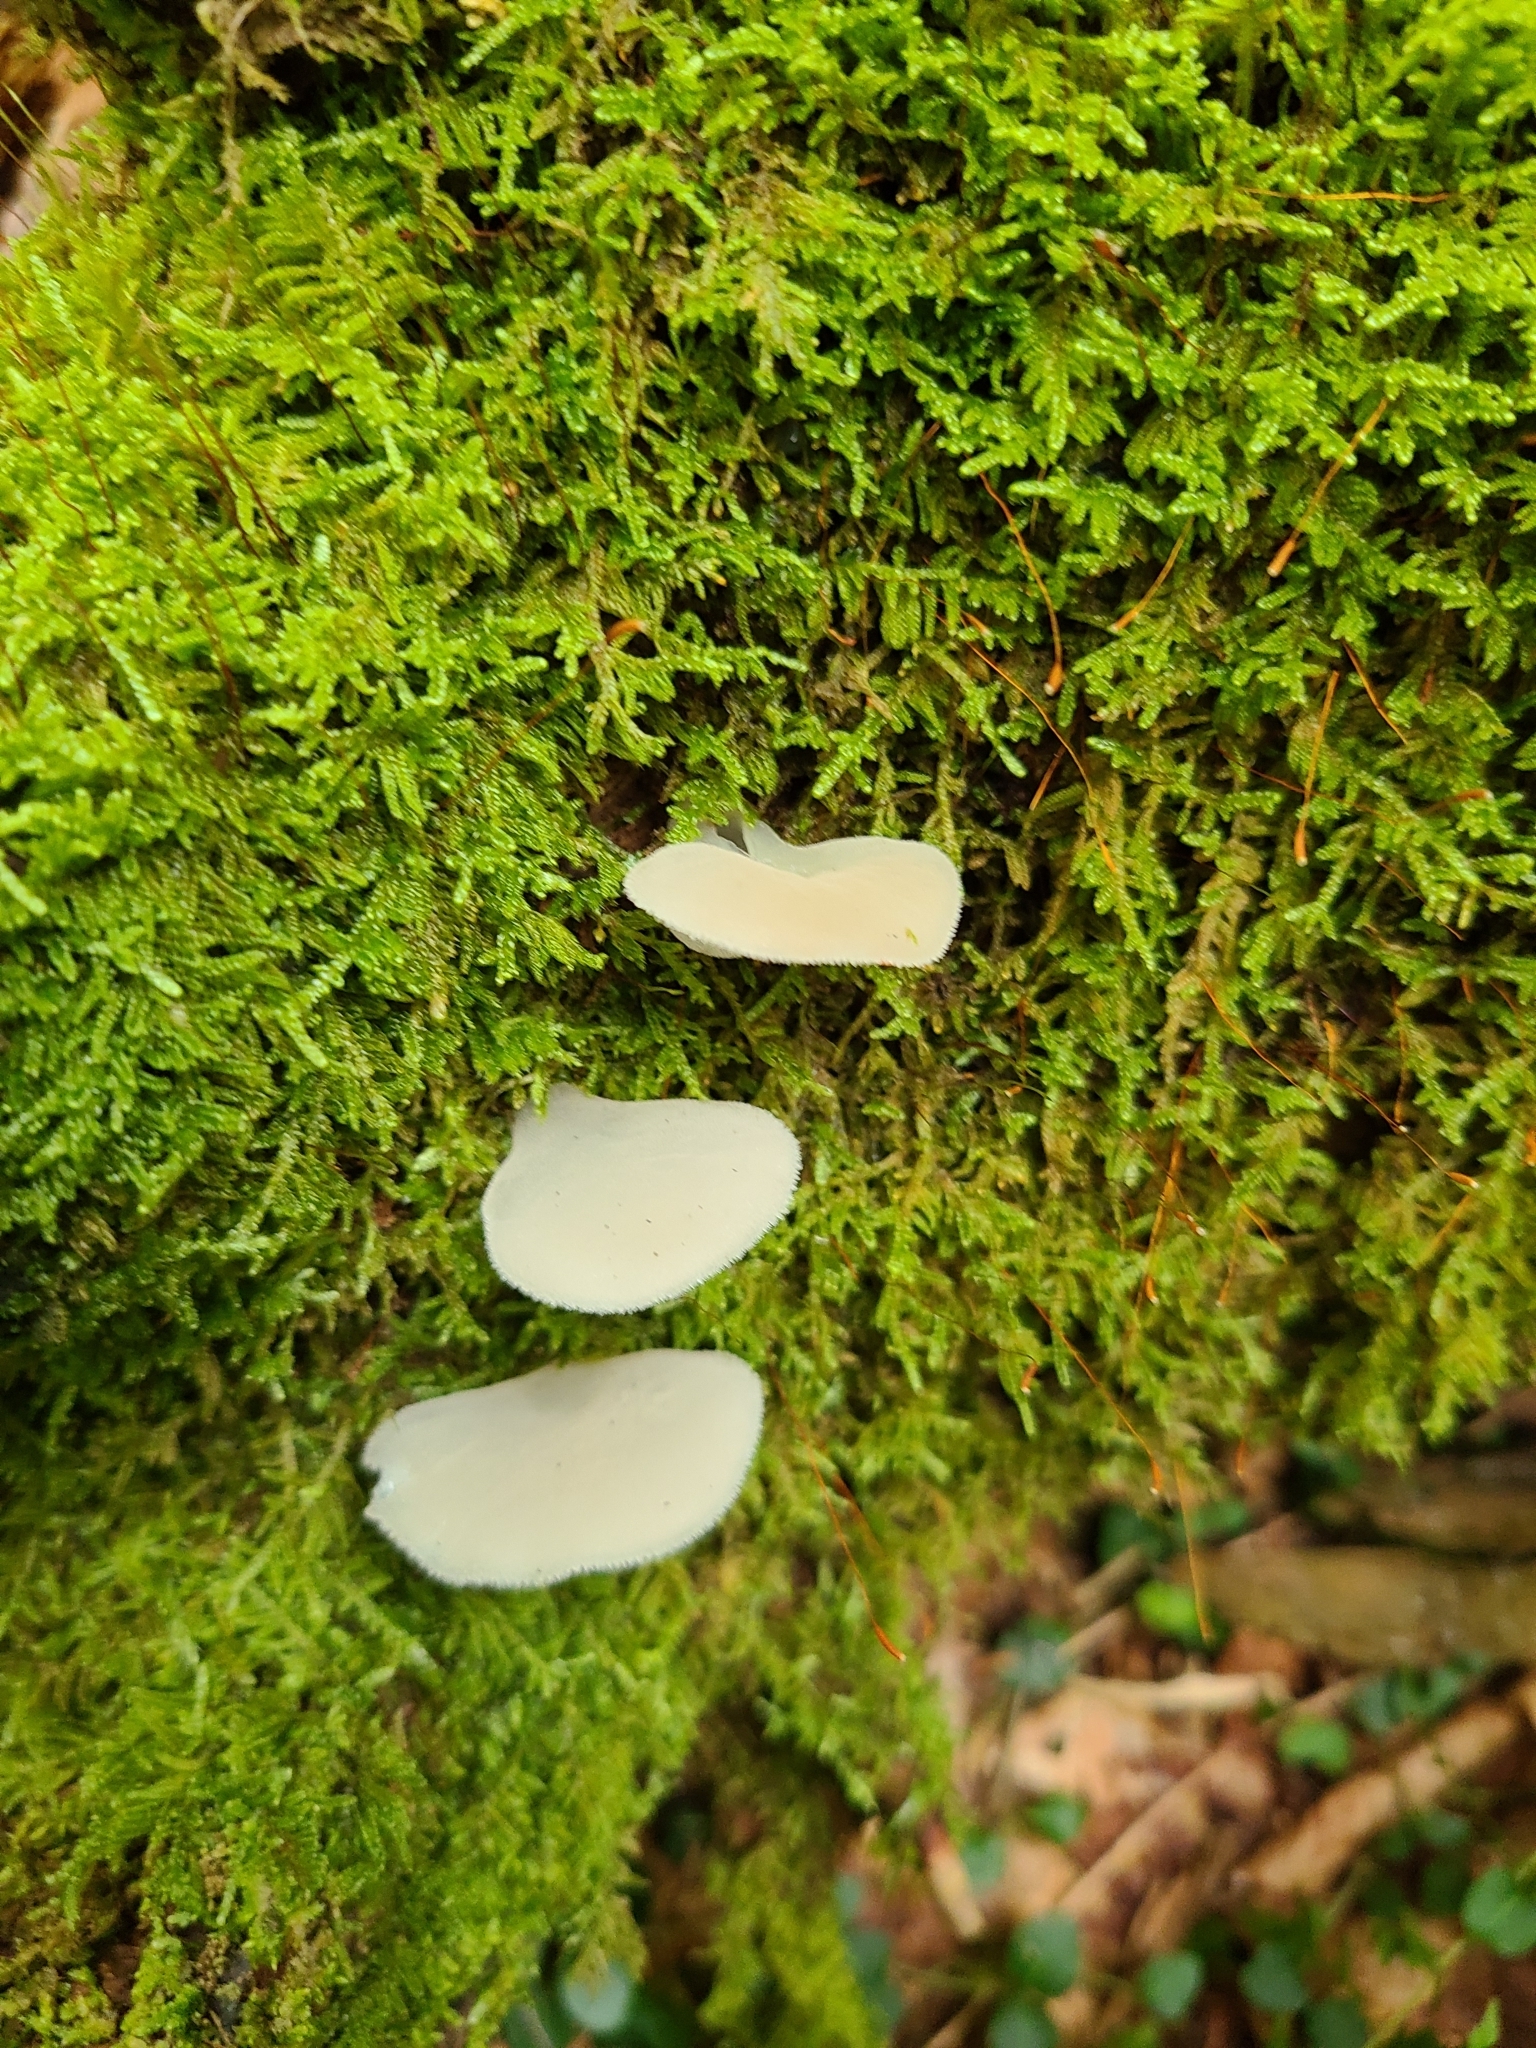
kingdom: Fungi
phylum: Basidiomycota
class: Agaricomycetes
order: Auriculariales
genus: Pseudohydnum
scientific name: Pseudohydnum gelatinosum
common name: Jelly tongue
